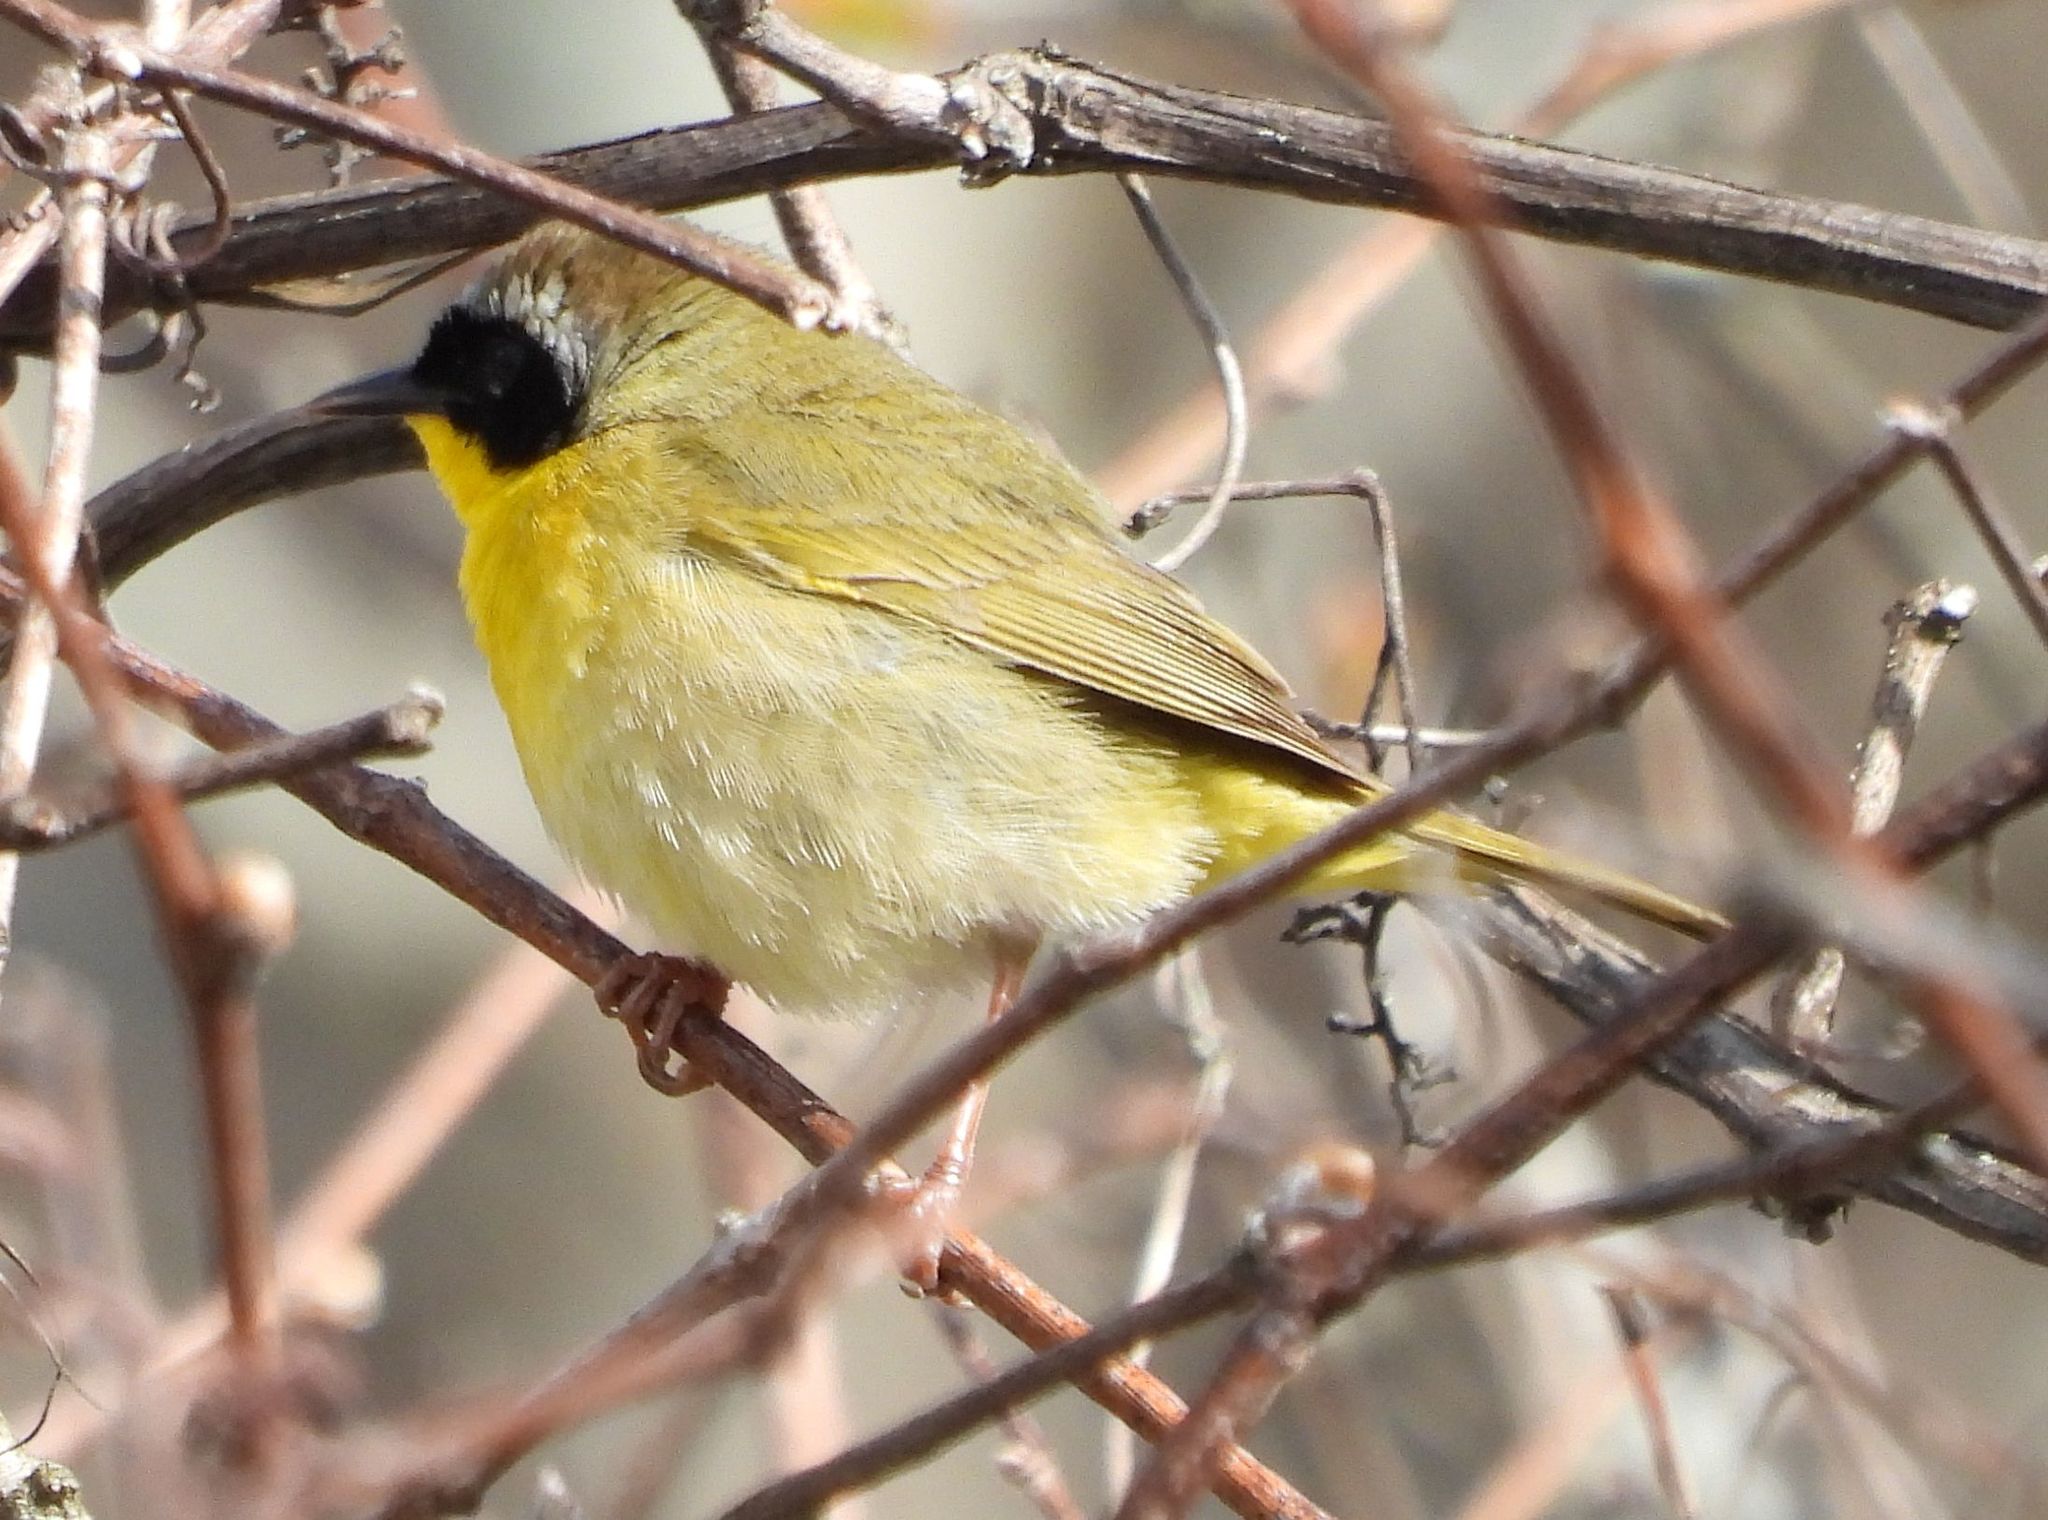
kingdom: Animalia
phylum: Chordata
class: Aves
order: Passeriformes
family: Parulidae
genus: Geothlypis
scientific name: Geothlypis trichas
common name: Common yellowthroat
